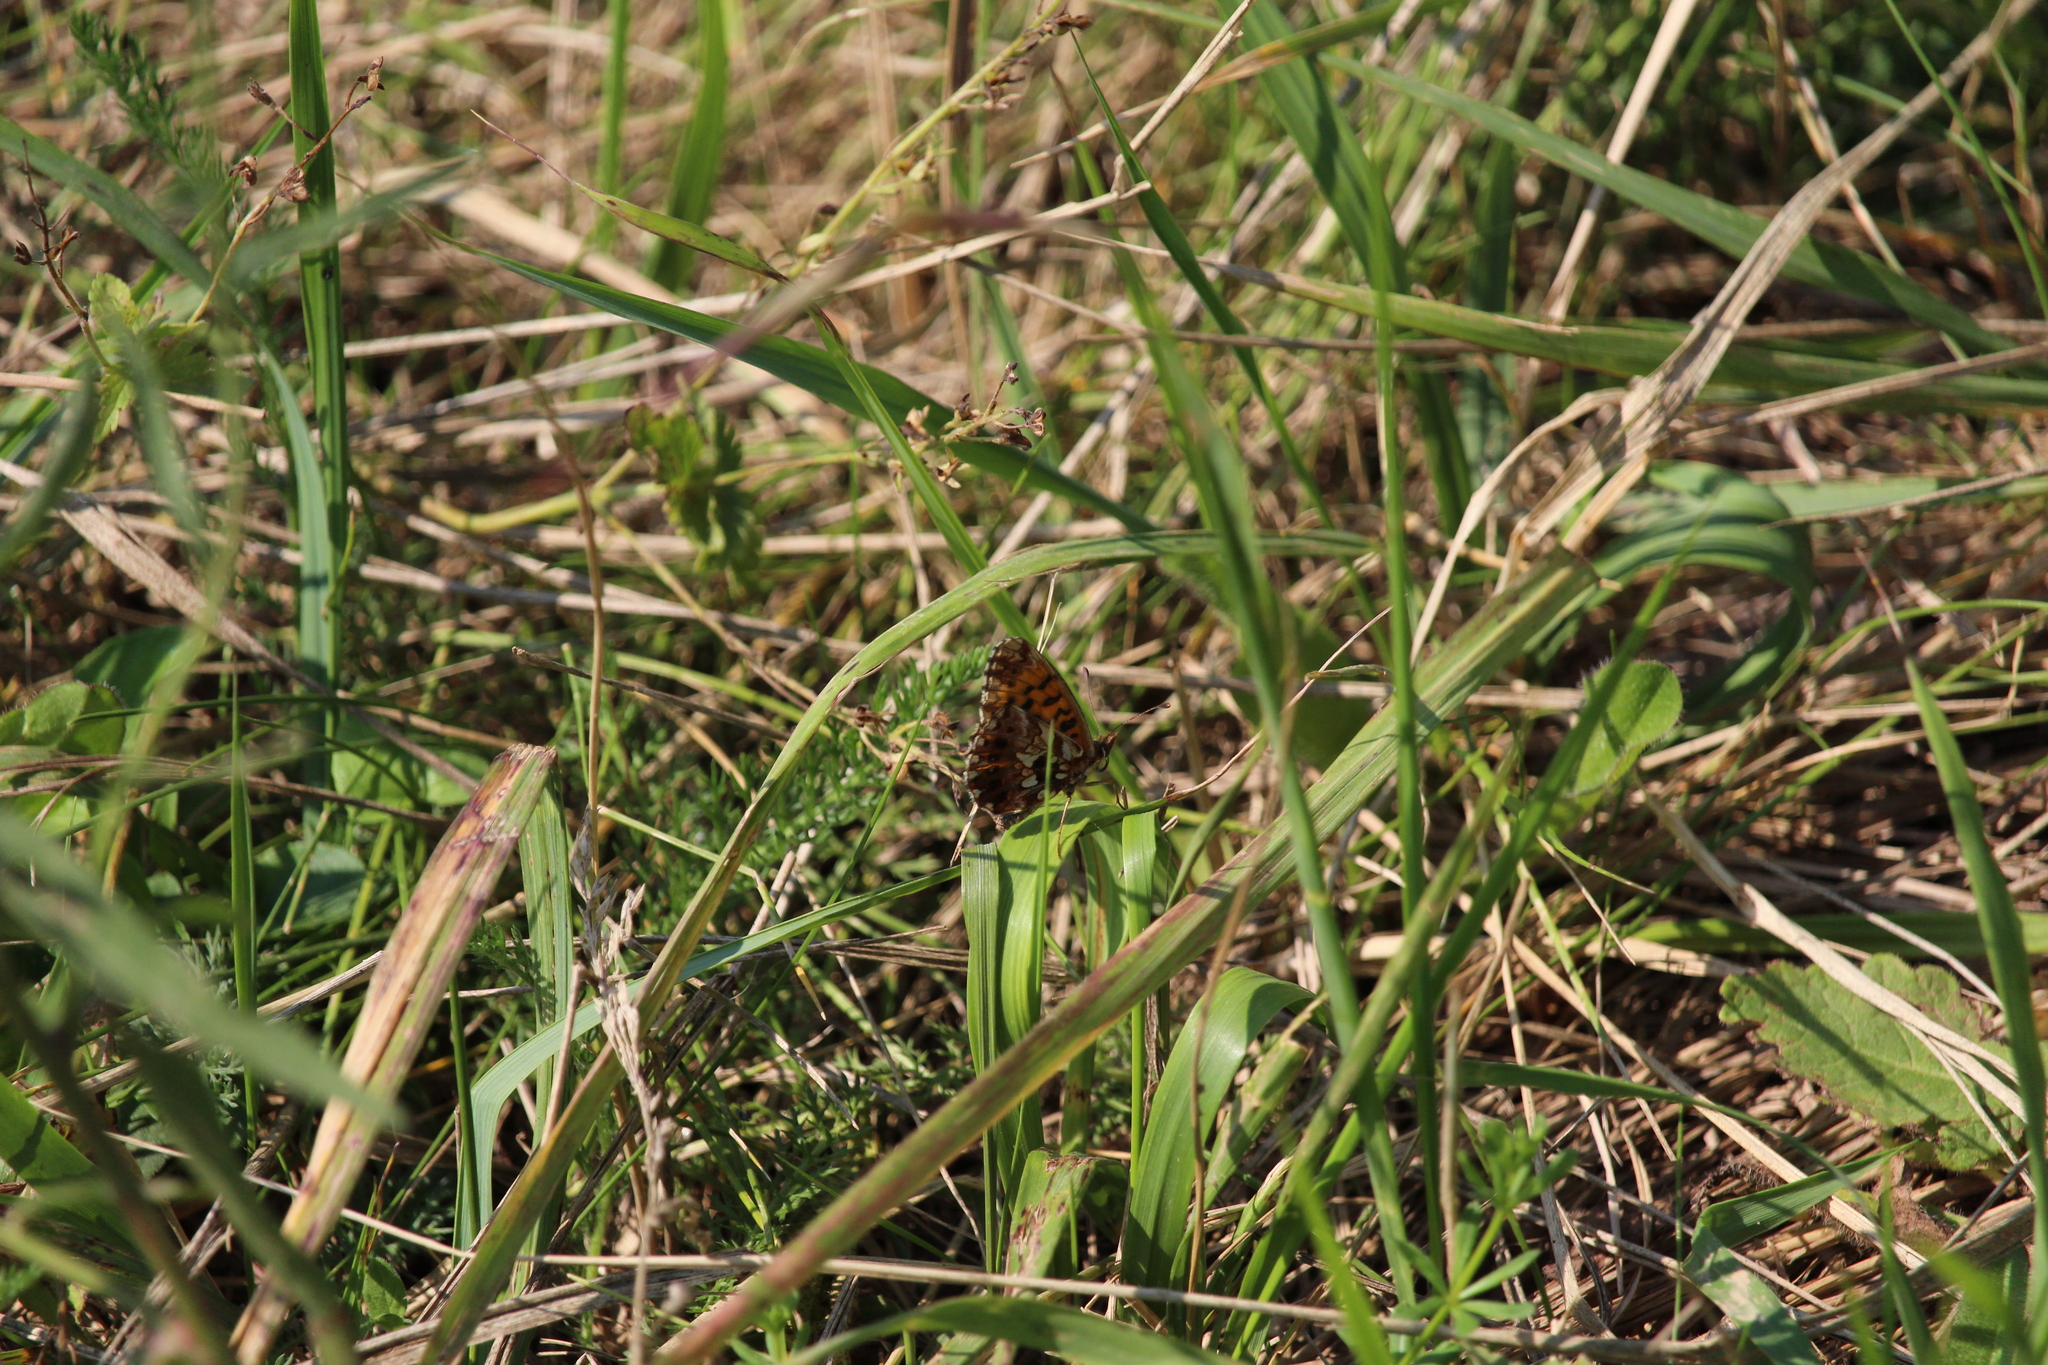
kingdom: Animalia
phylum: Arthropoda
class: Insecta
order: Lepidoptera
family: Nymphalidae
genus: Boloria
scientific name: Boloria dia
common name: Weaver's fritillary
